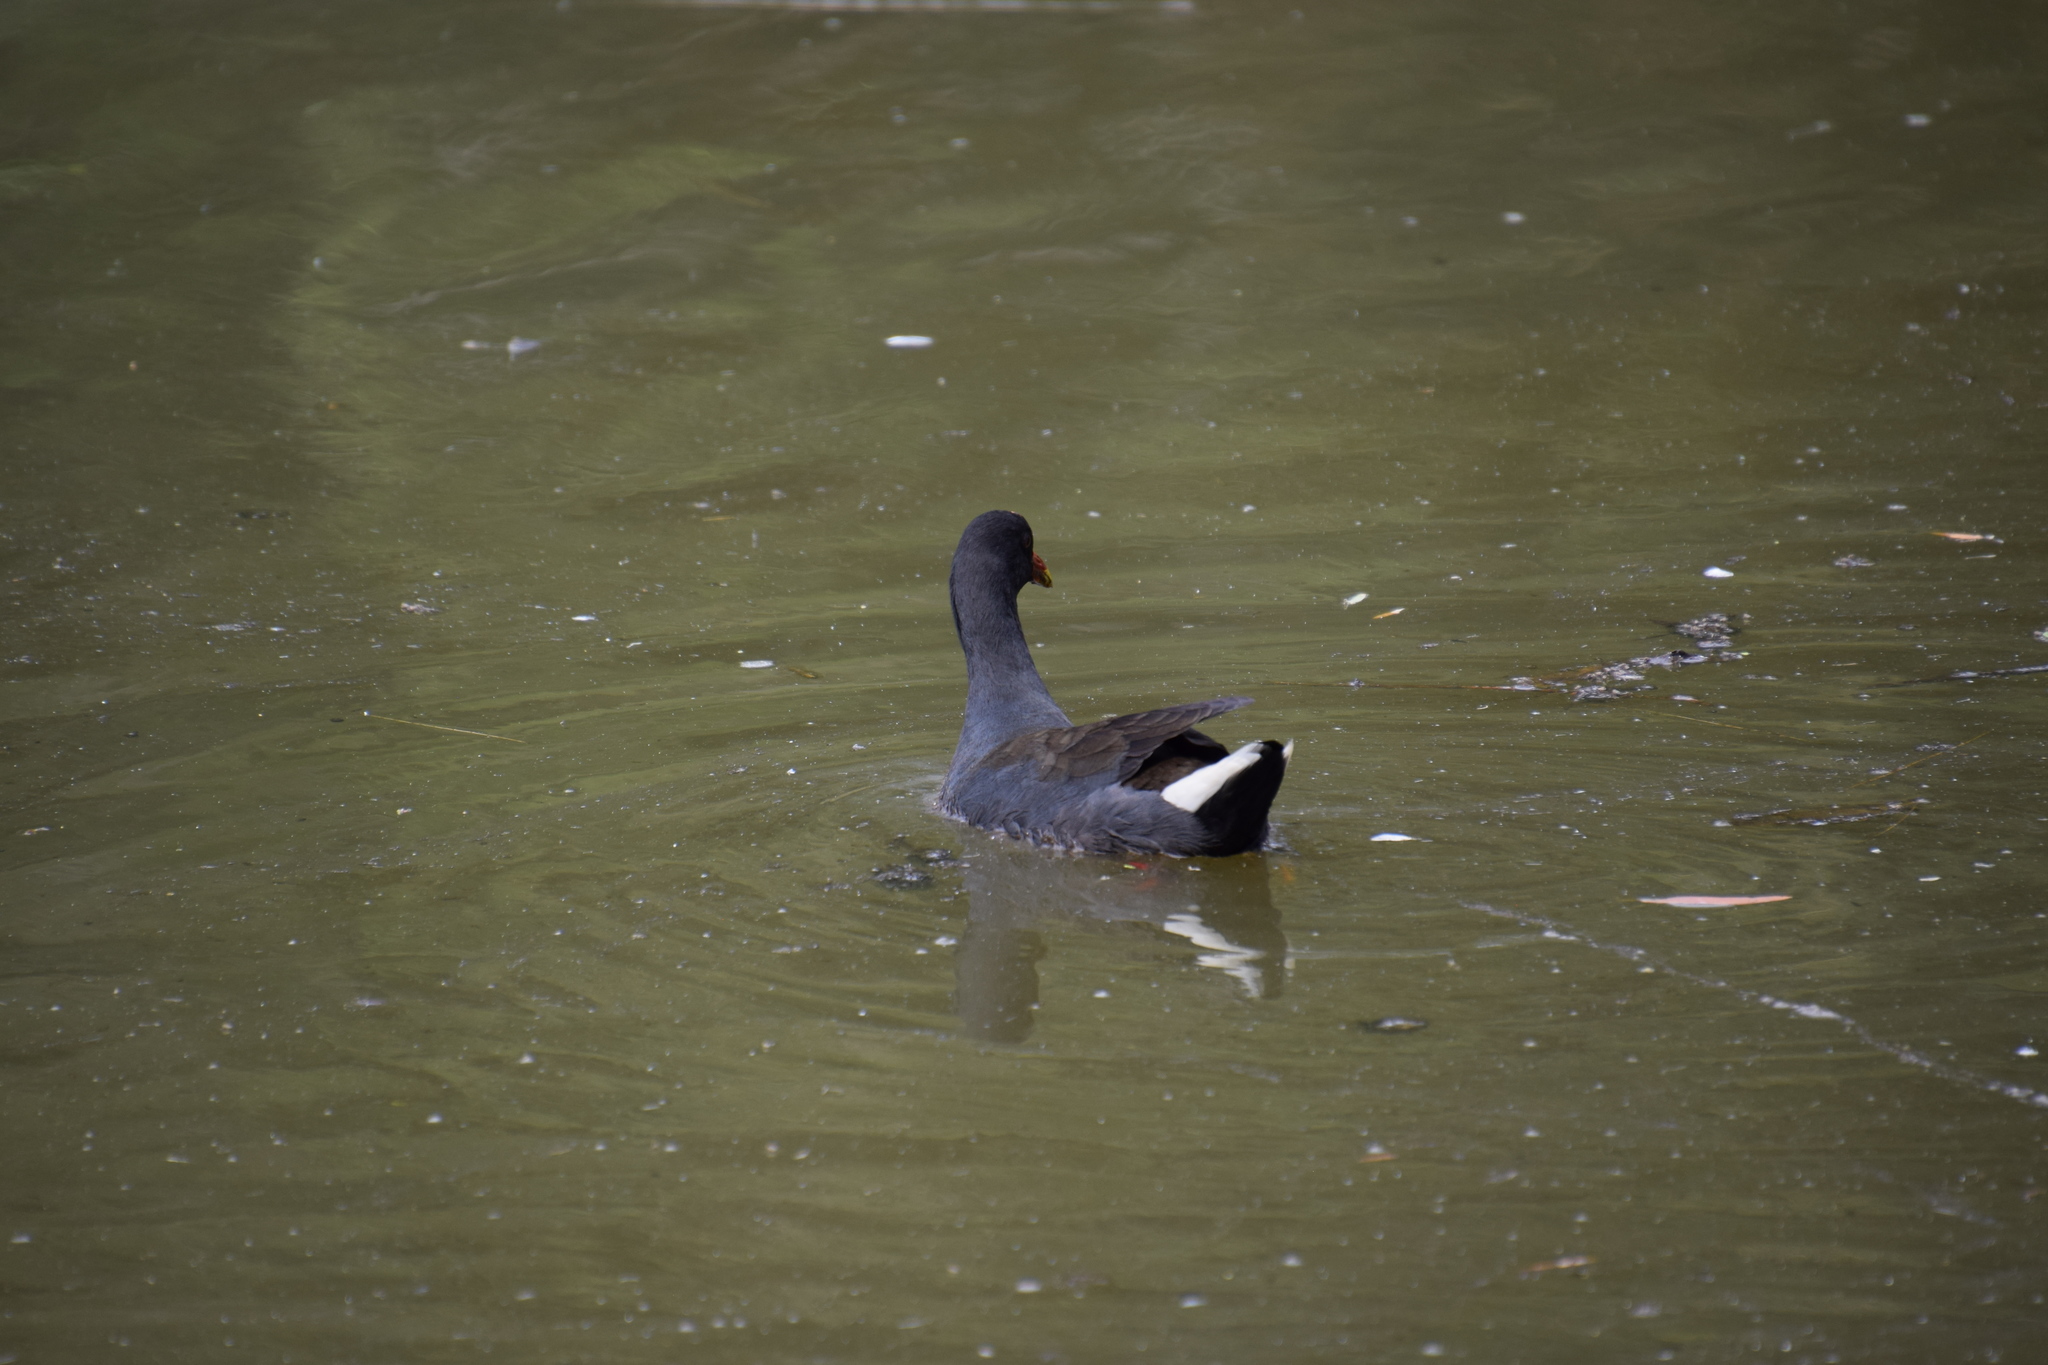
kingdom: Animalia
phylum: Chordata
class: Aves
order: Gruiformes
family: Rallidae
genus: Gallinula
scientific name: Gallinula tenebrosa
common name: Dusky moorhen
